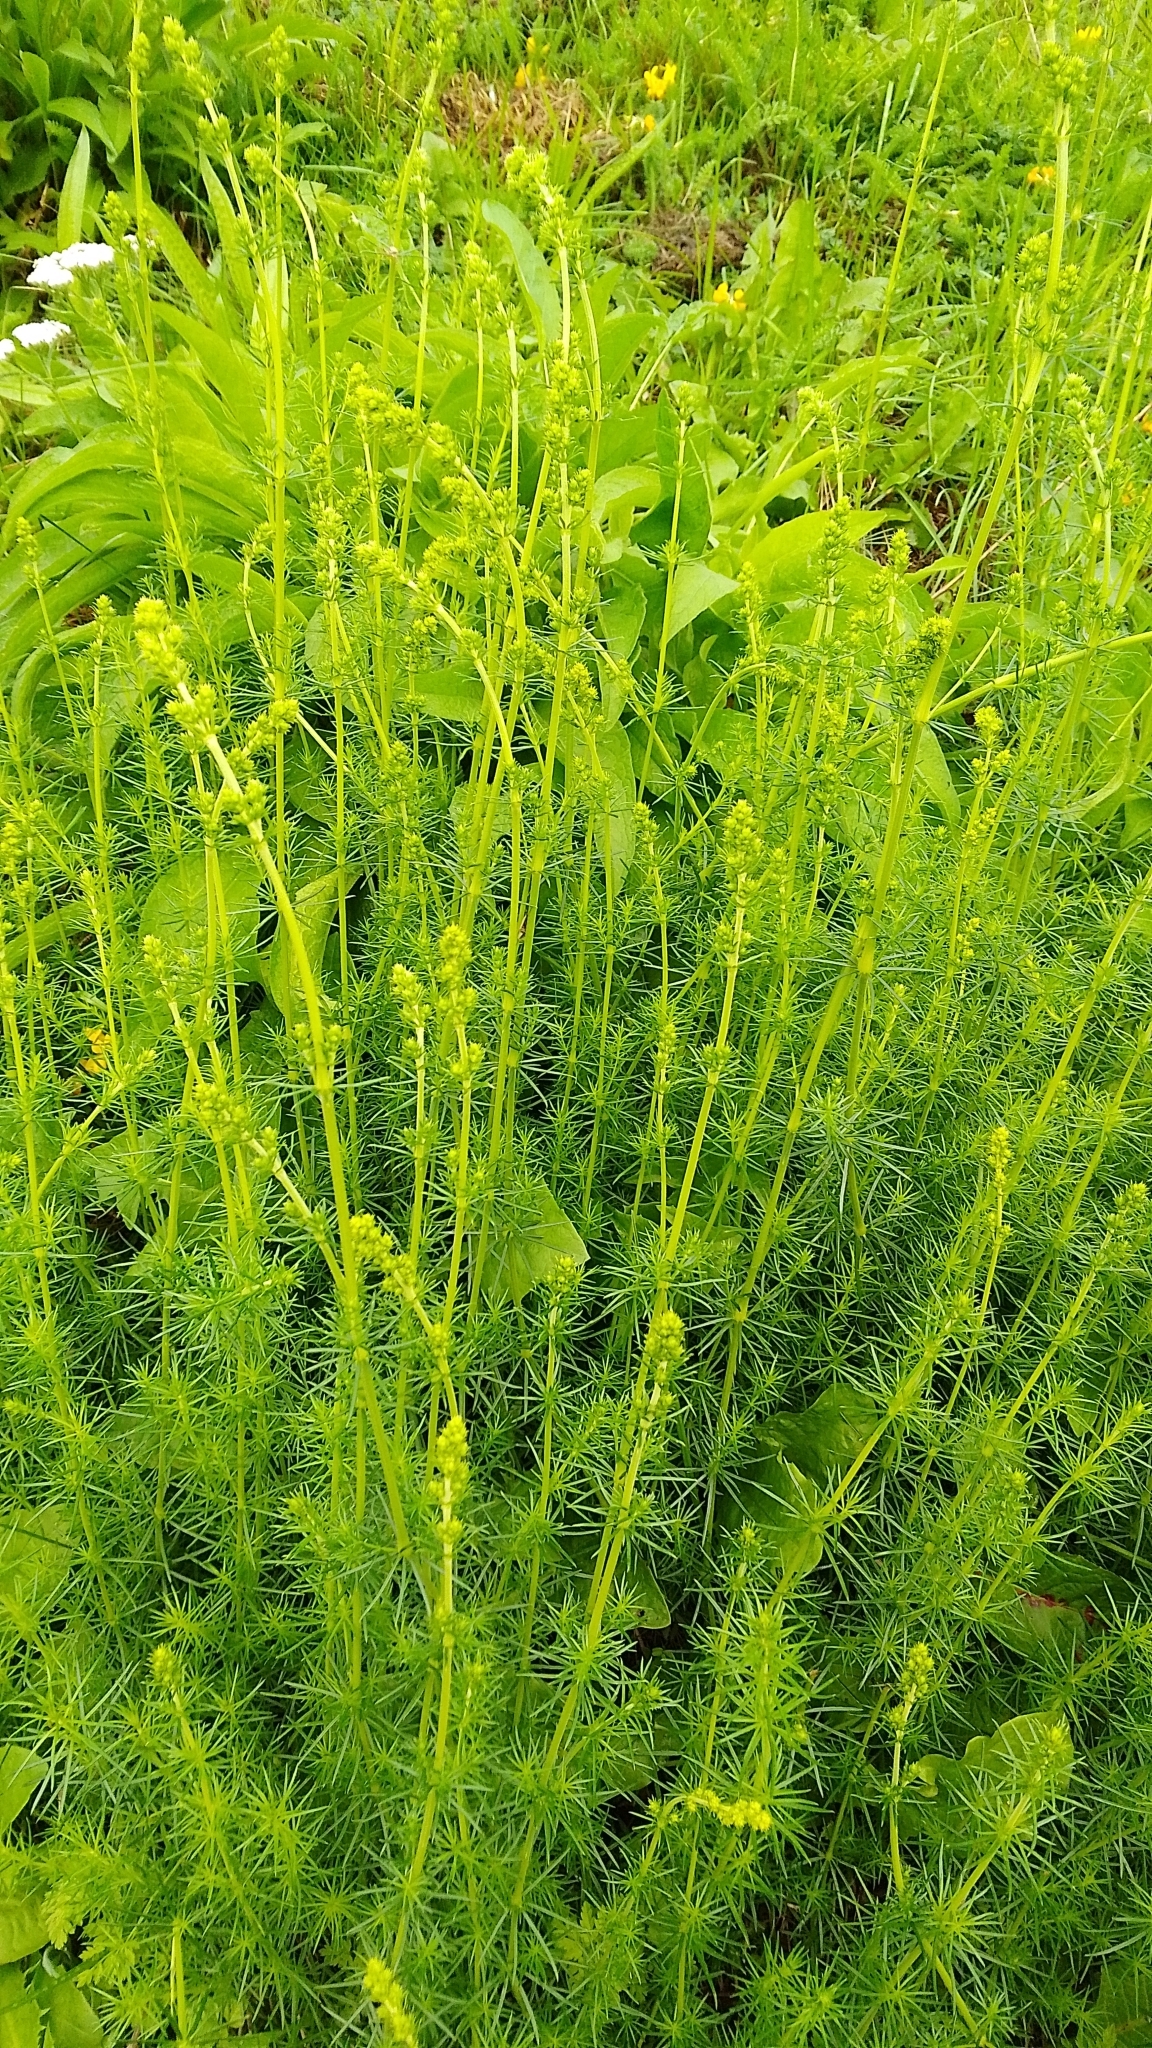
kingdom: Plantae
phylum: Tracheophyta
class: Magnoliopsida
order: Gentianales
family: Rubiaceae
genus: Galium
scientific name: Galium verum
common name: Lady's bedstraw
